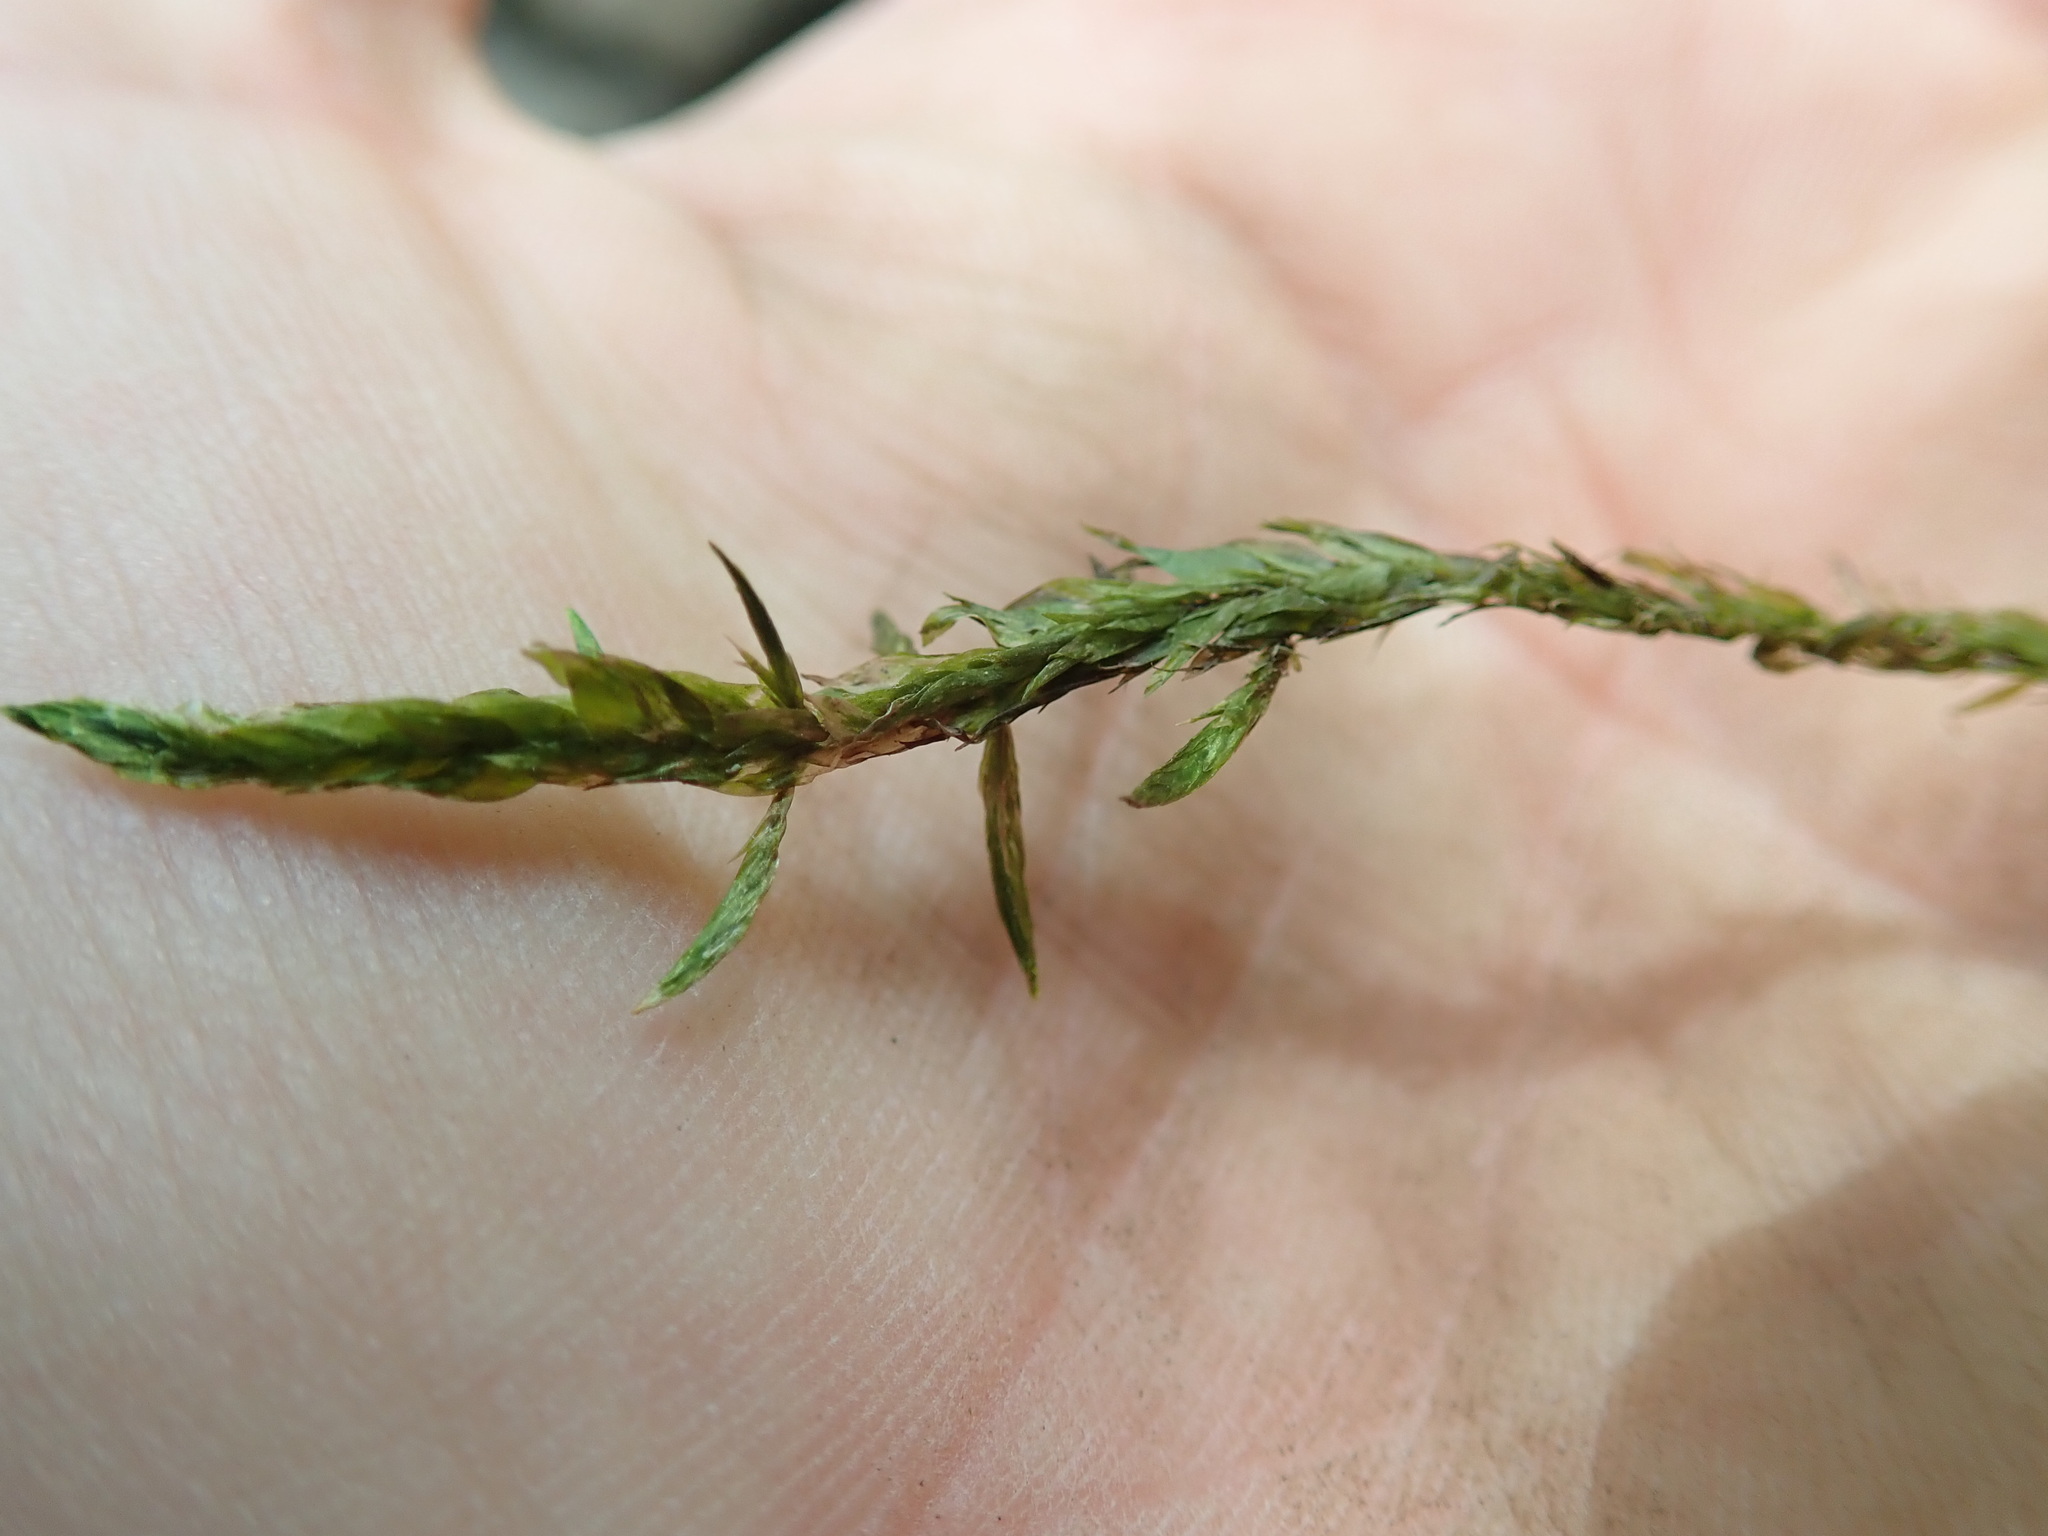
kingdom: Plantae
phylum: Bryophyta
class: Bryopsida
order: Hypnales
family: Fontinalaceae
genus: Fontinalis
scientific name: Fontinalis antipyretica
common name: Greater water-moss
